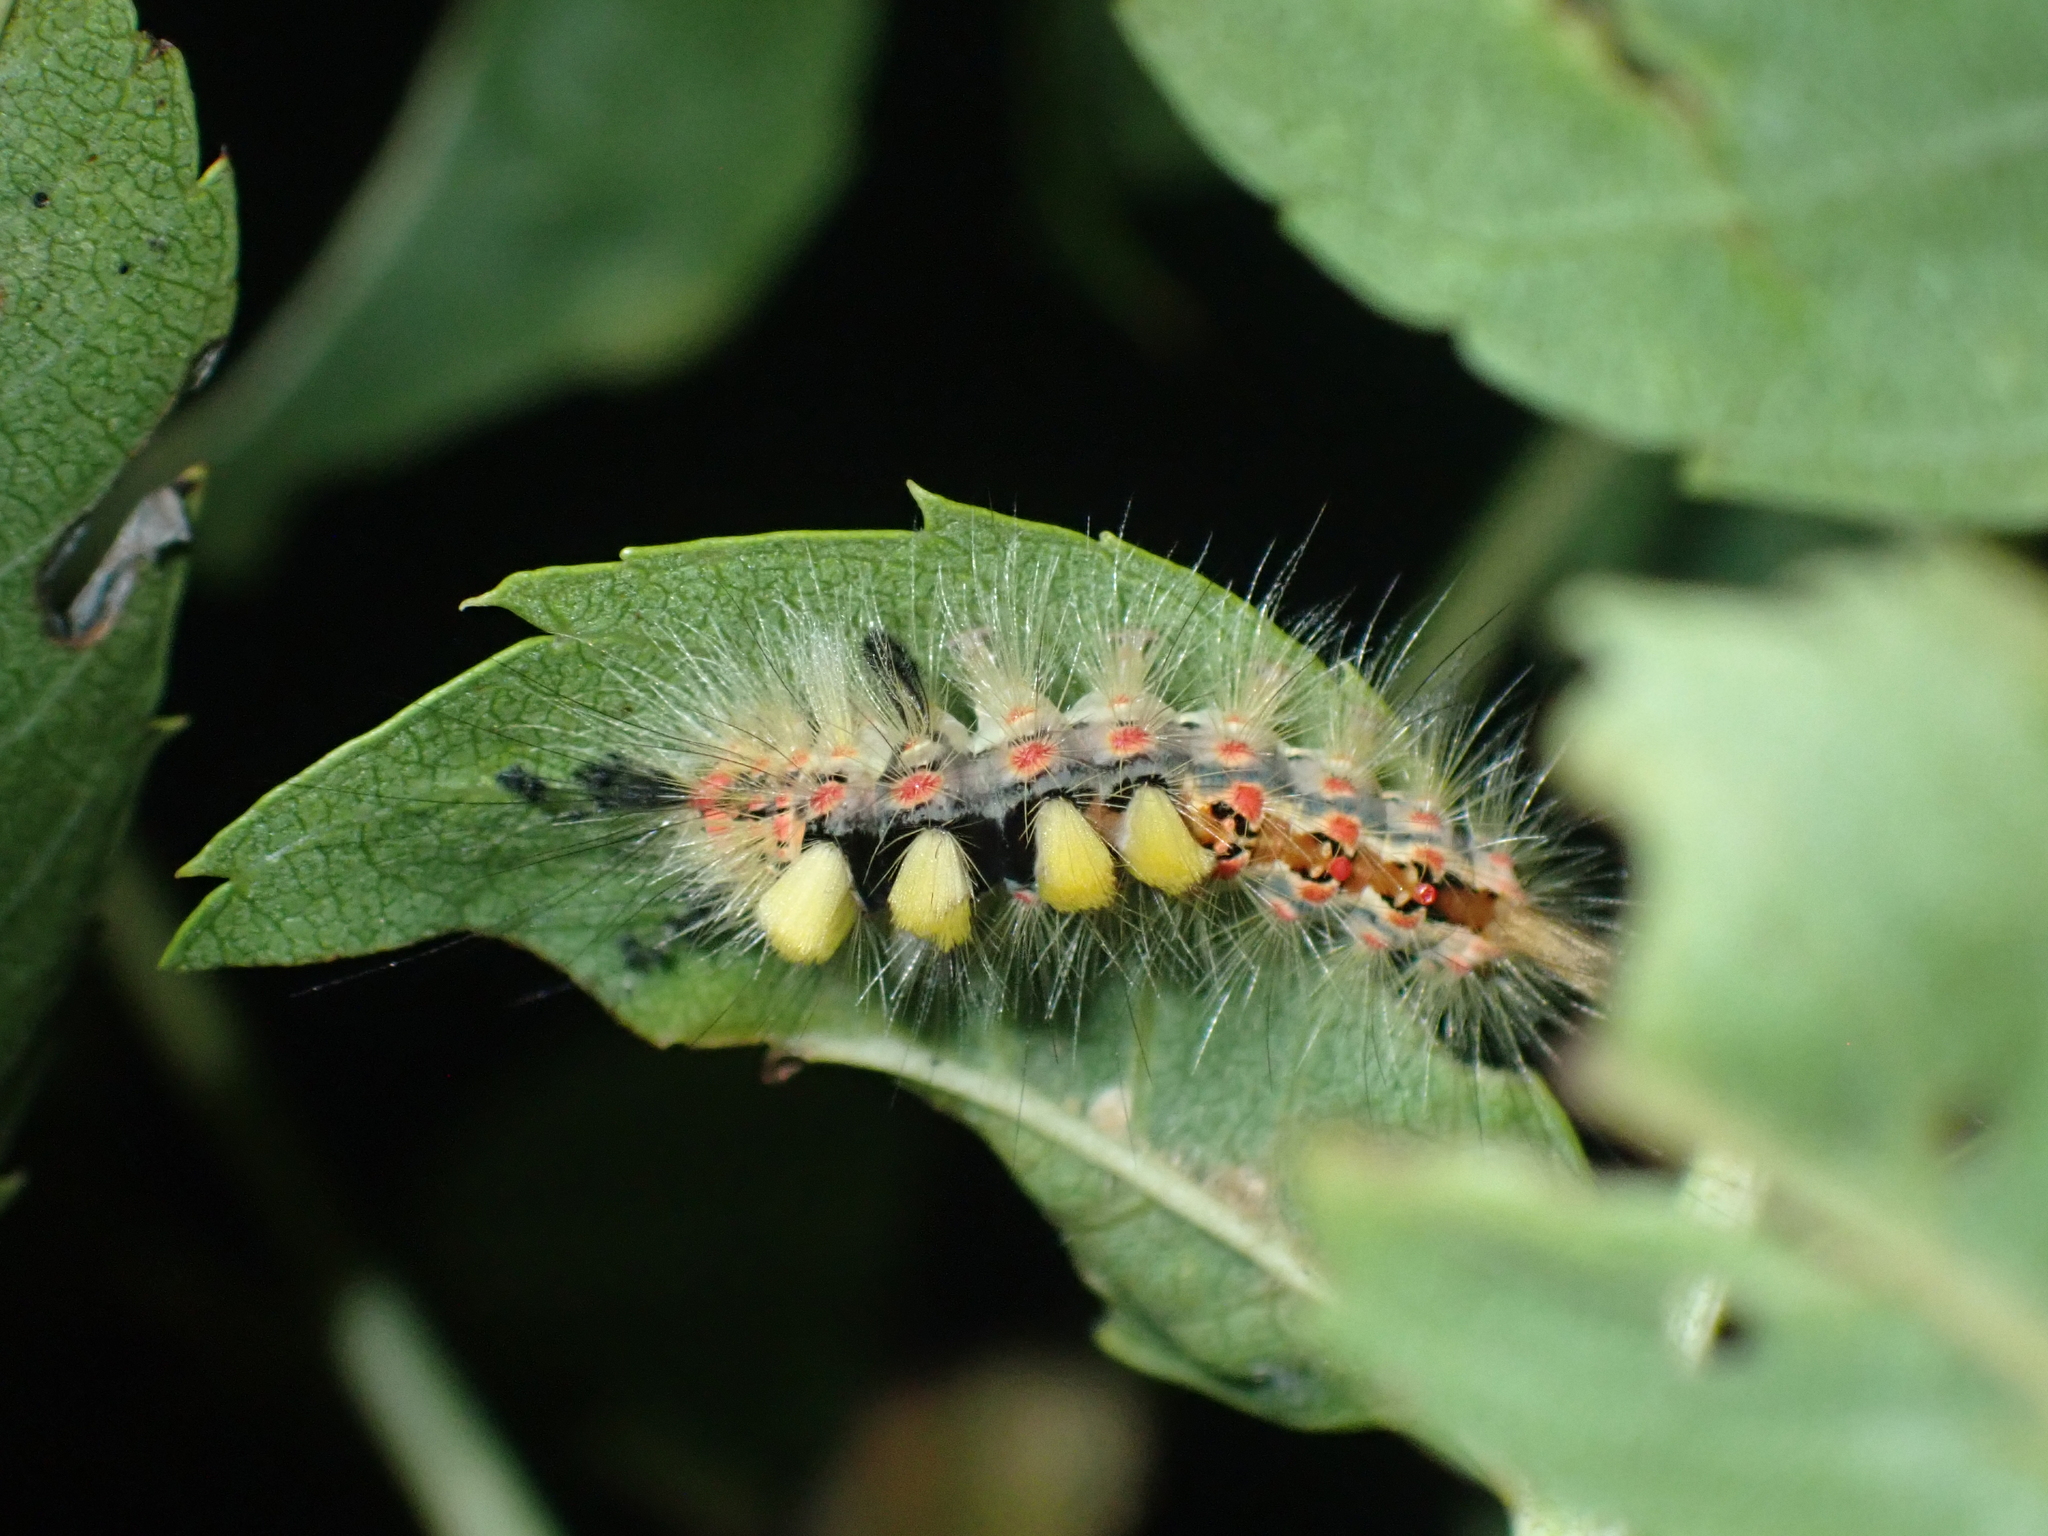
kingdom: Animalia
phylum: Arthropoda
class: Insecta
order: Lepidoptera
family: Erebidae
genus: Orgyia
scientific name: Orgyia antiqua
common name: Vapourer
